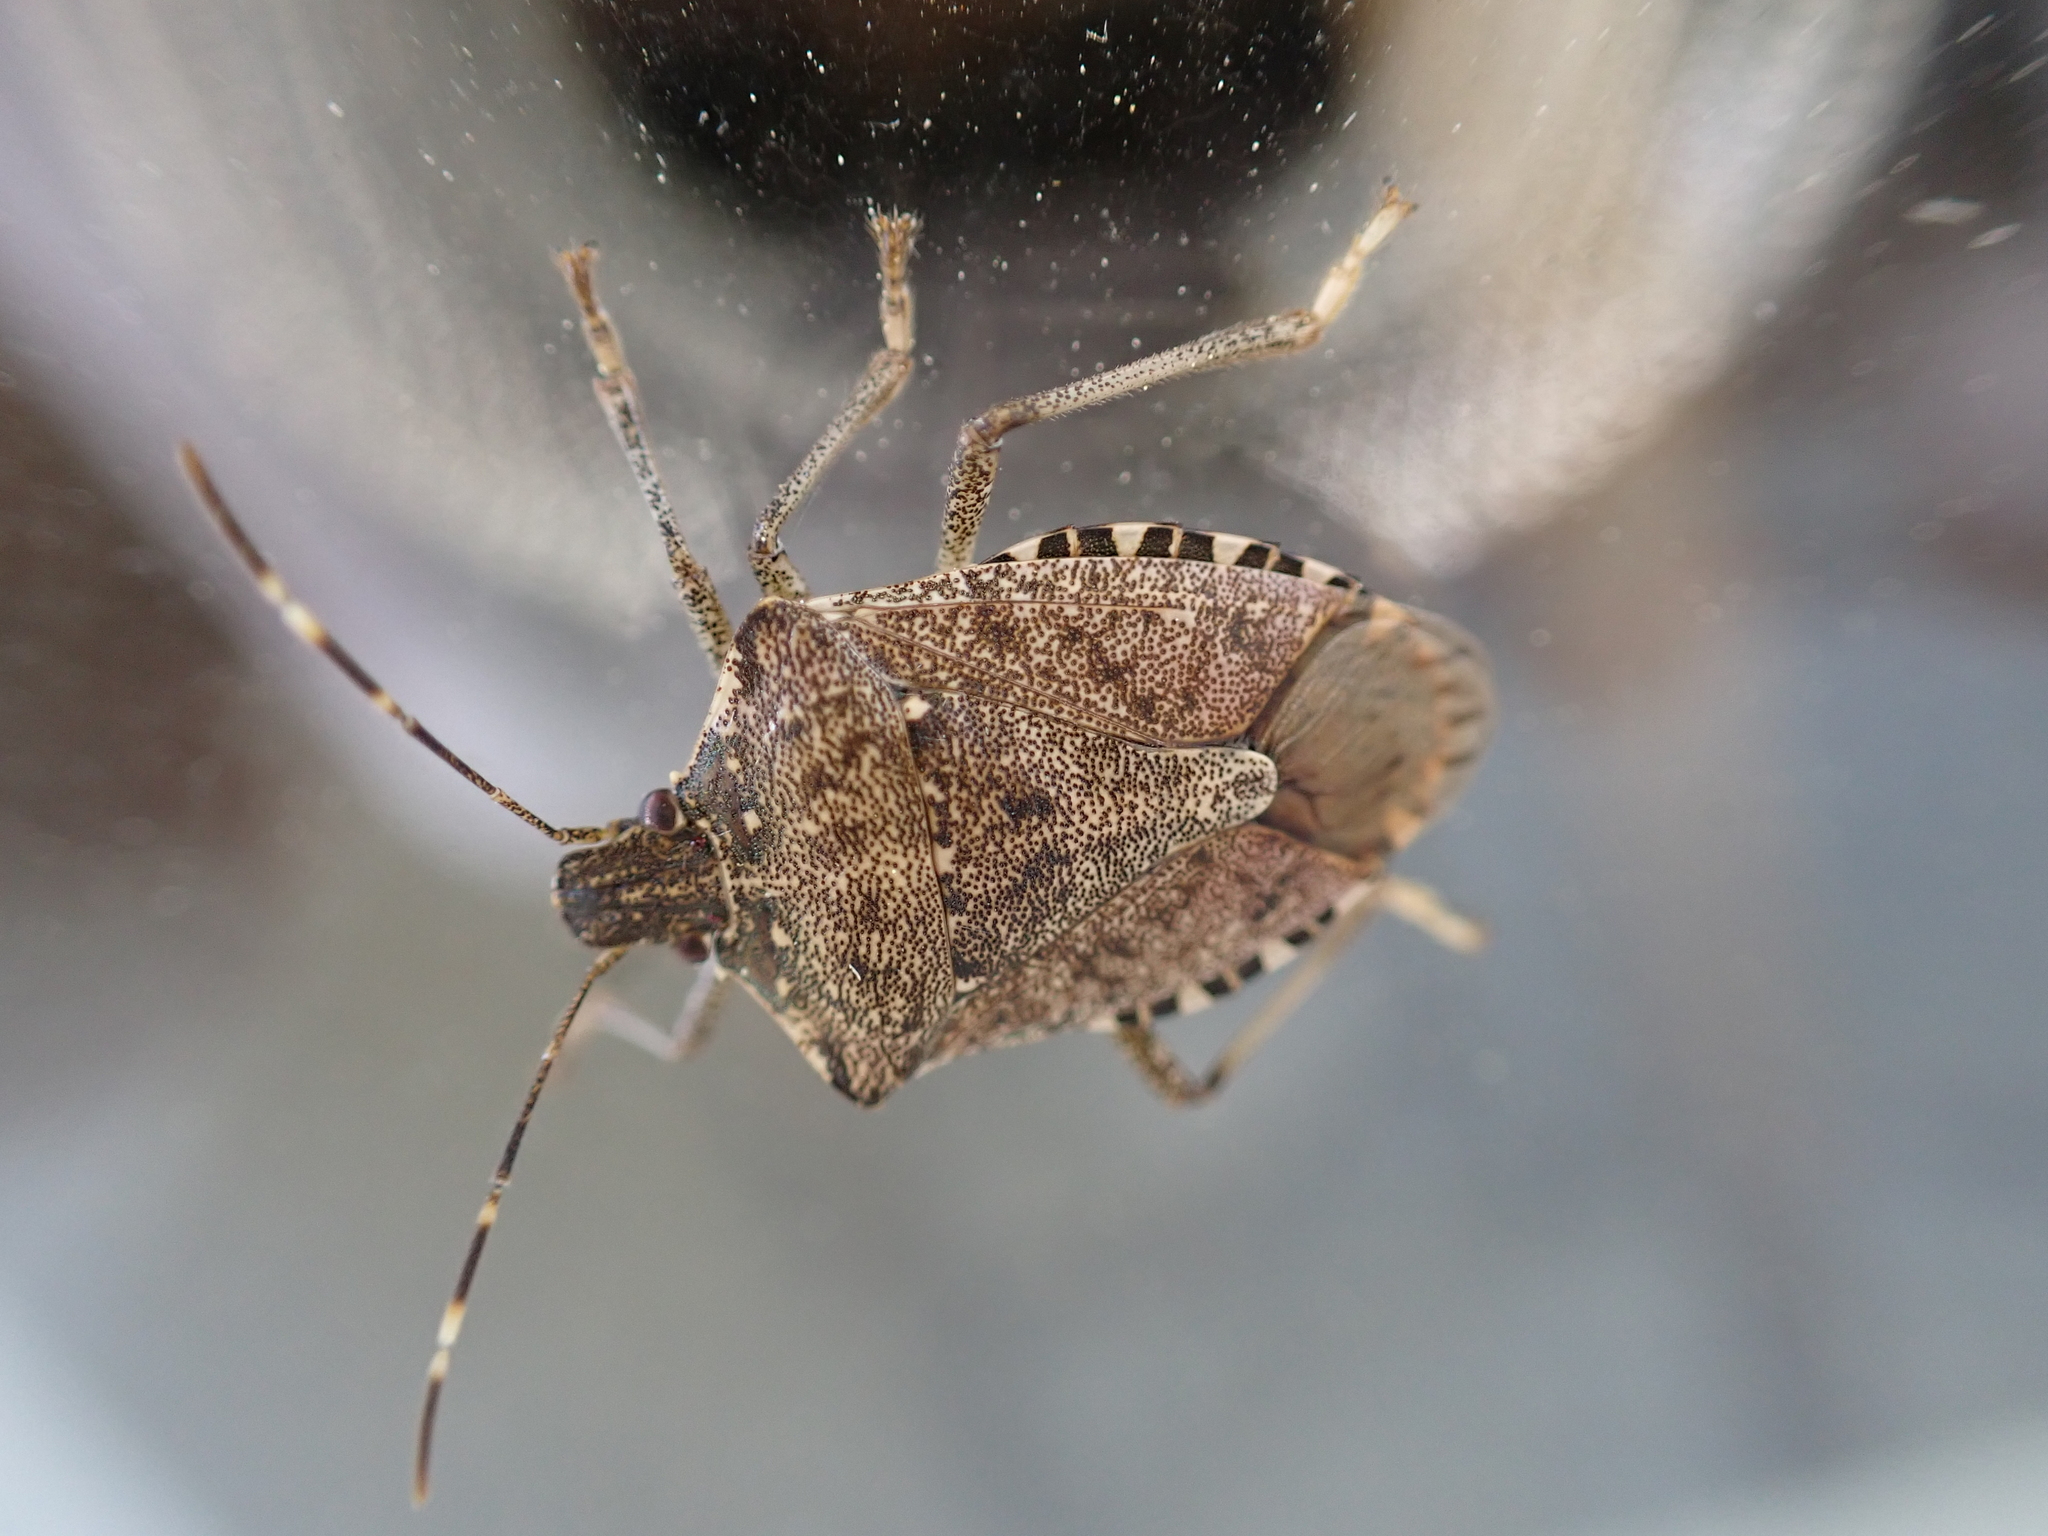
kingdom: Animalia
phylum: Arthropoda
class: Insecta
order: Hemiptera
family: Pentatomidae
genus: Halyomorpha
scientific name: Halyomorpha halys
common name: Brown marmorated stink bug
